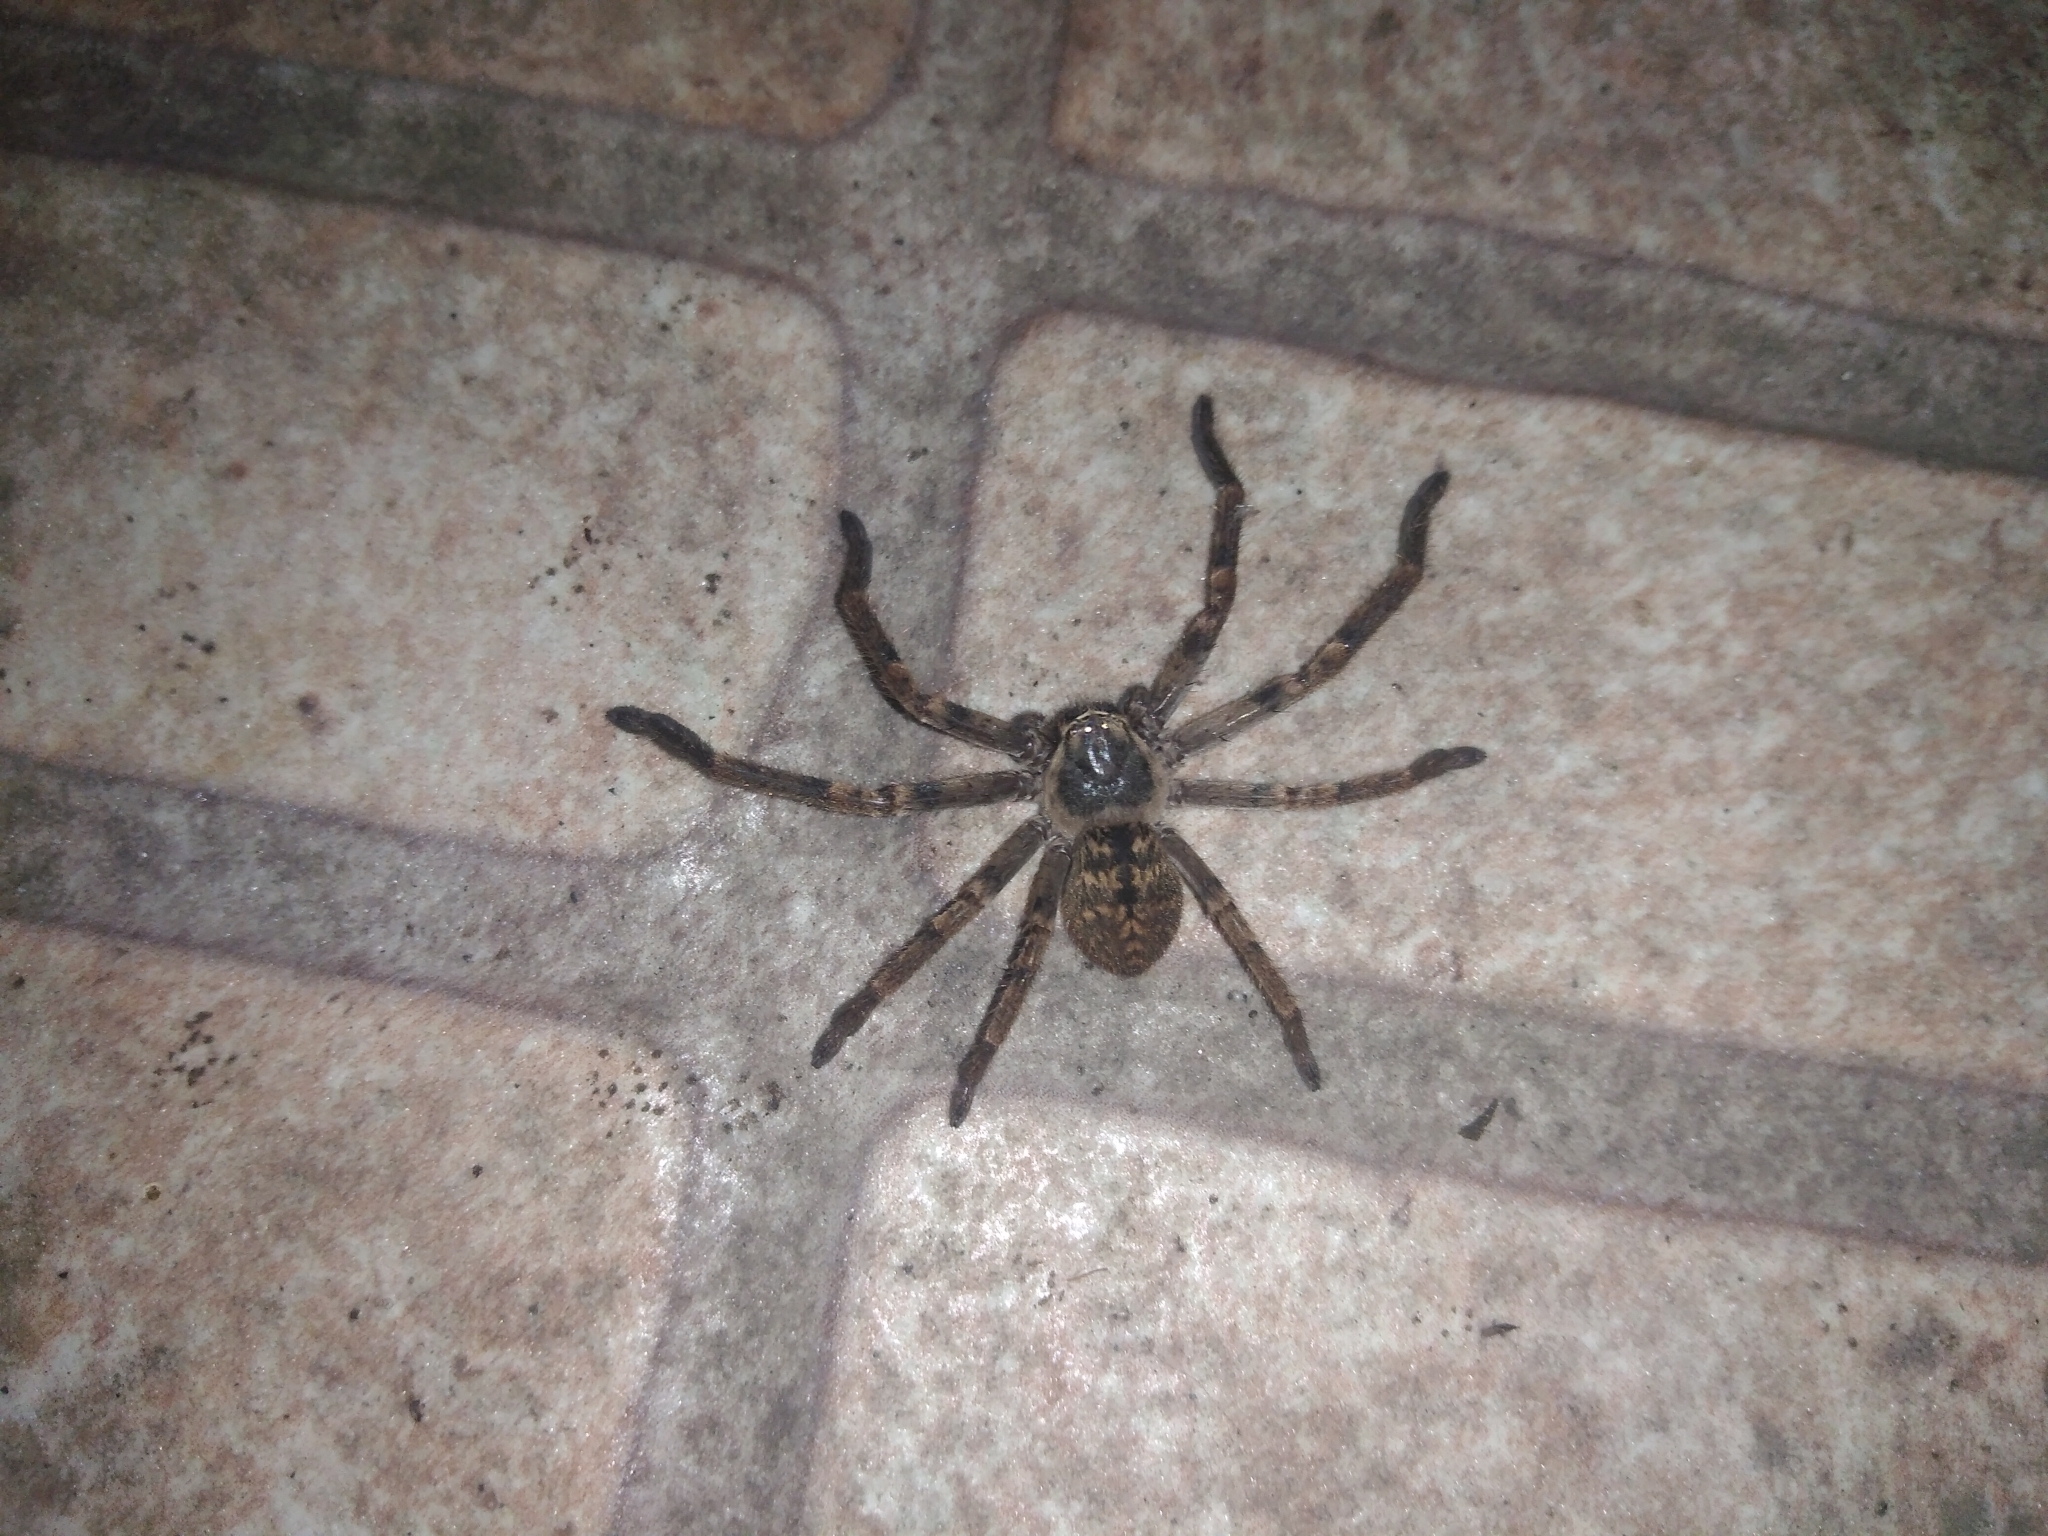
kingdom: Animalia
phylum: Arthropoda
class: Arachnida
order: Araneae
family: Sparassidae
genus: Polybetes
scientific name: Polybetes pythagoricus
